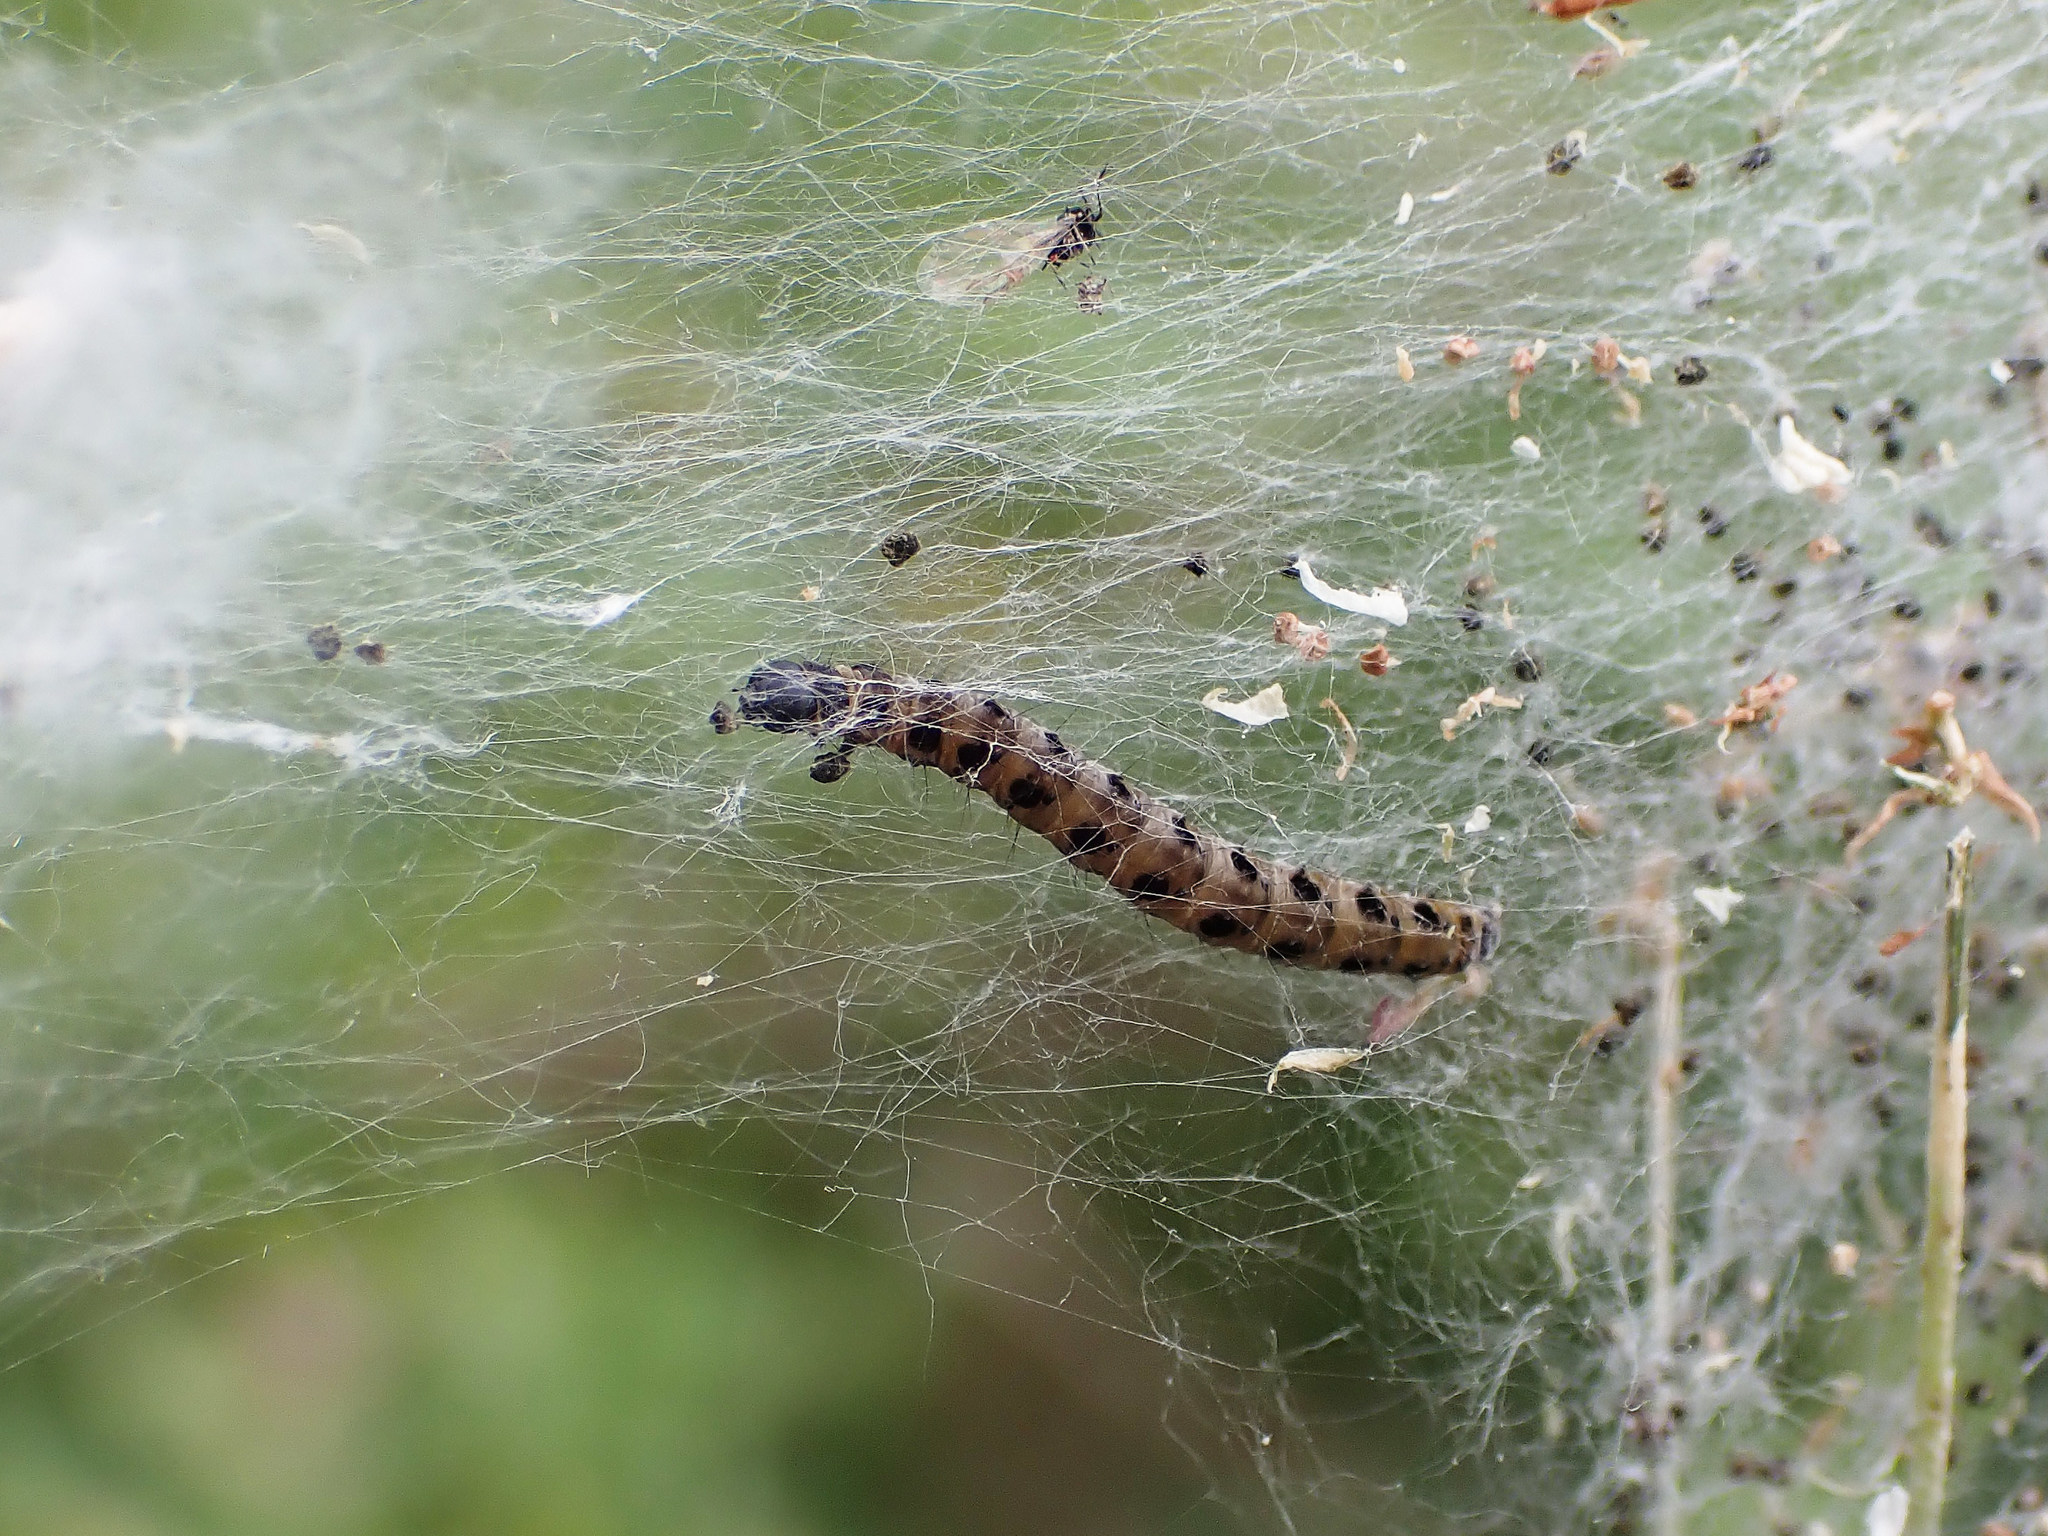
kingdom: Animalia
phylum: Arthropoda
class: Insecta
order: Lepidoptera
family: Yponomeutidae
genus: Yponomeuta
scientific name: Yponomeuta
